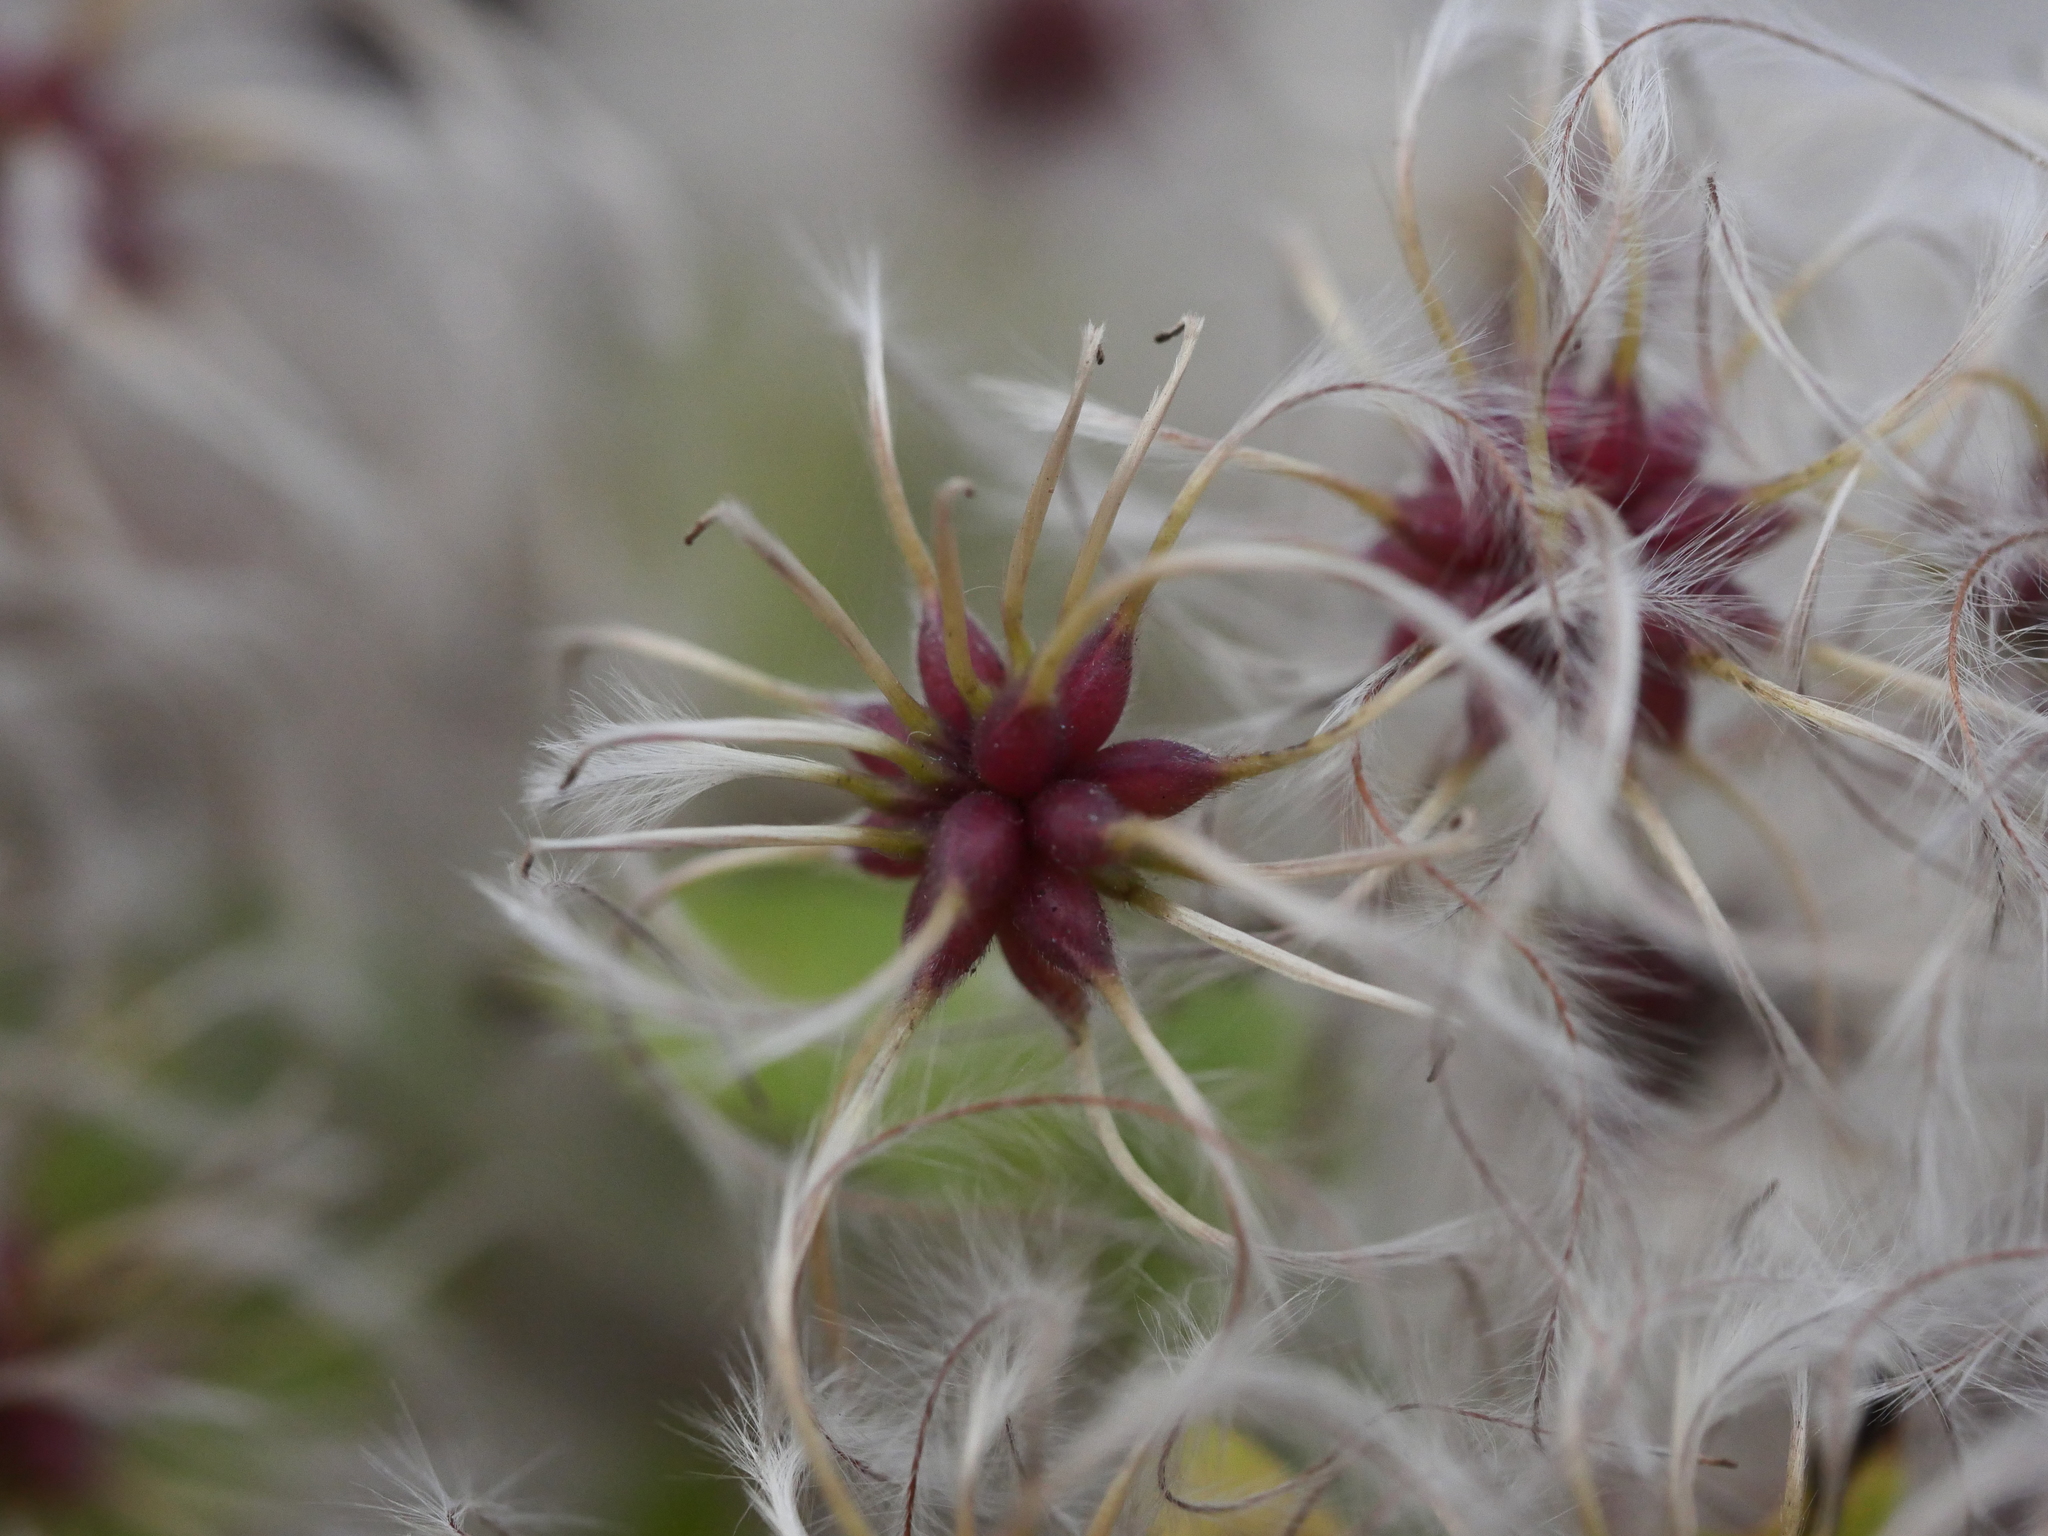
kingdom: Plantae
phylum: Tracheophyta
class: Magnoliopsida
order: Ranunculales
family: Ranunculaceae
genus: Clematis
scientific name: Clematis vitalba
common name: Evergreen clematis
